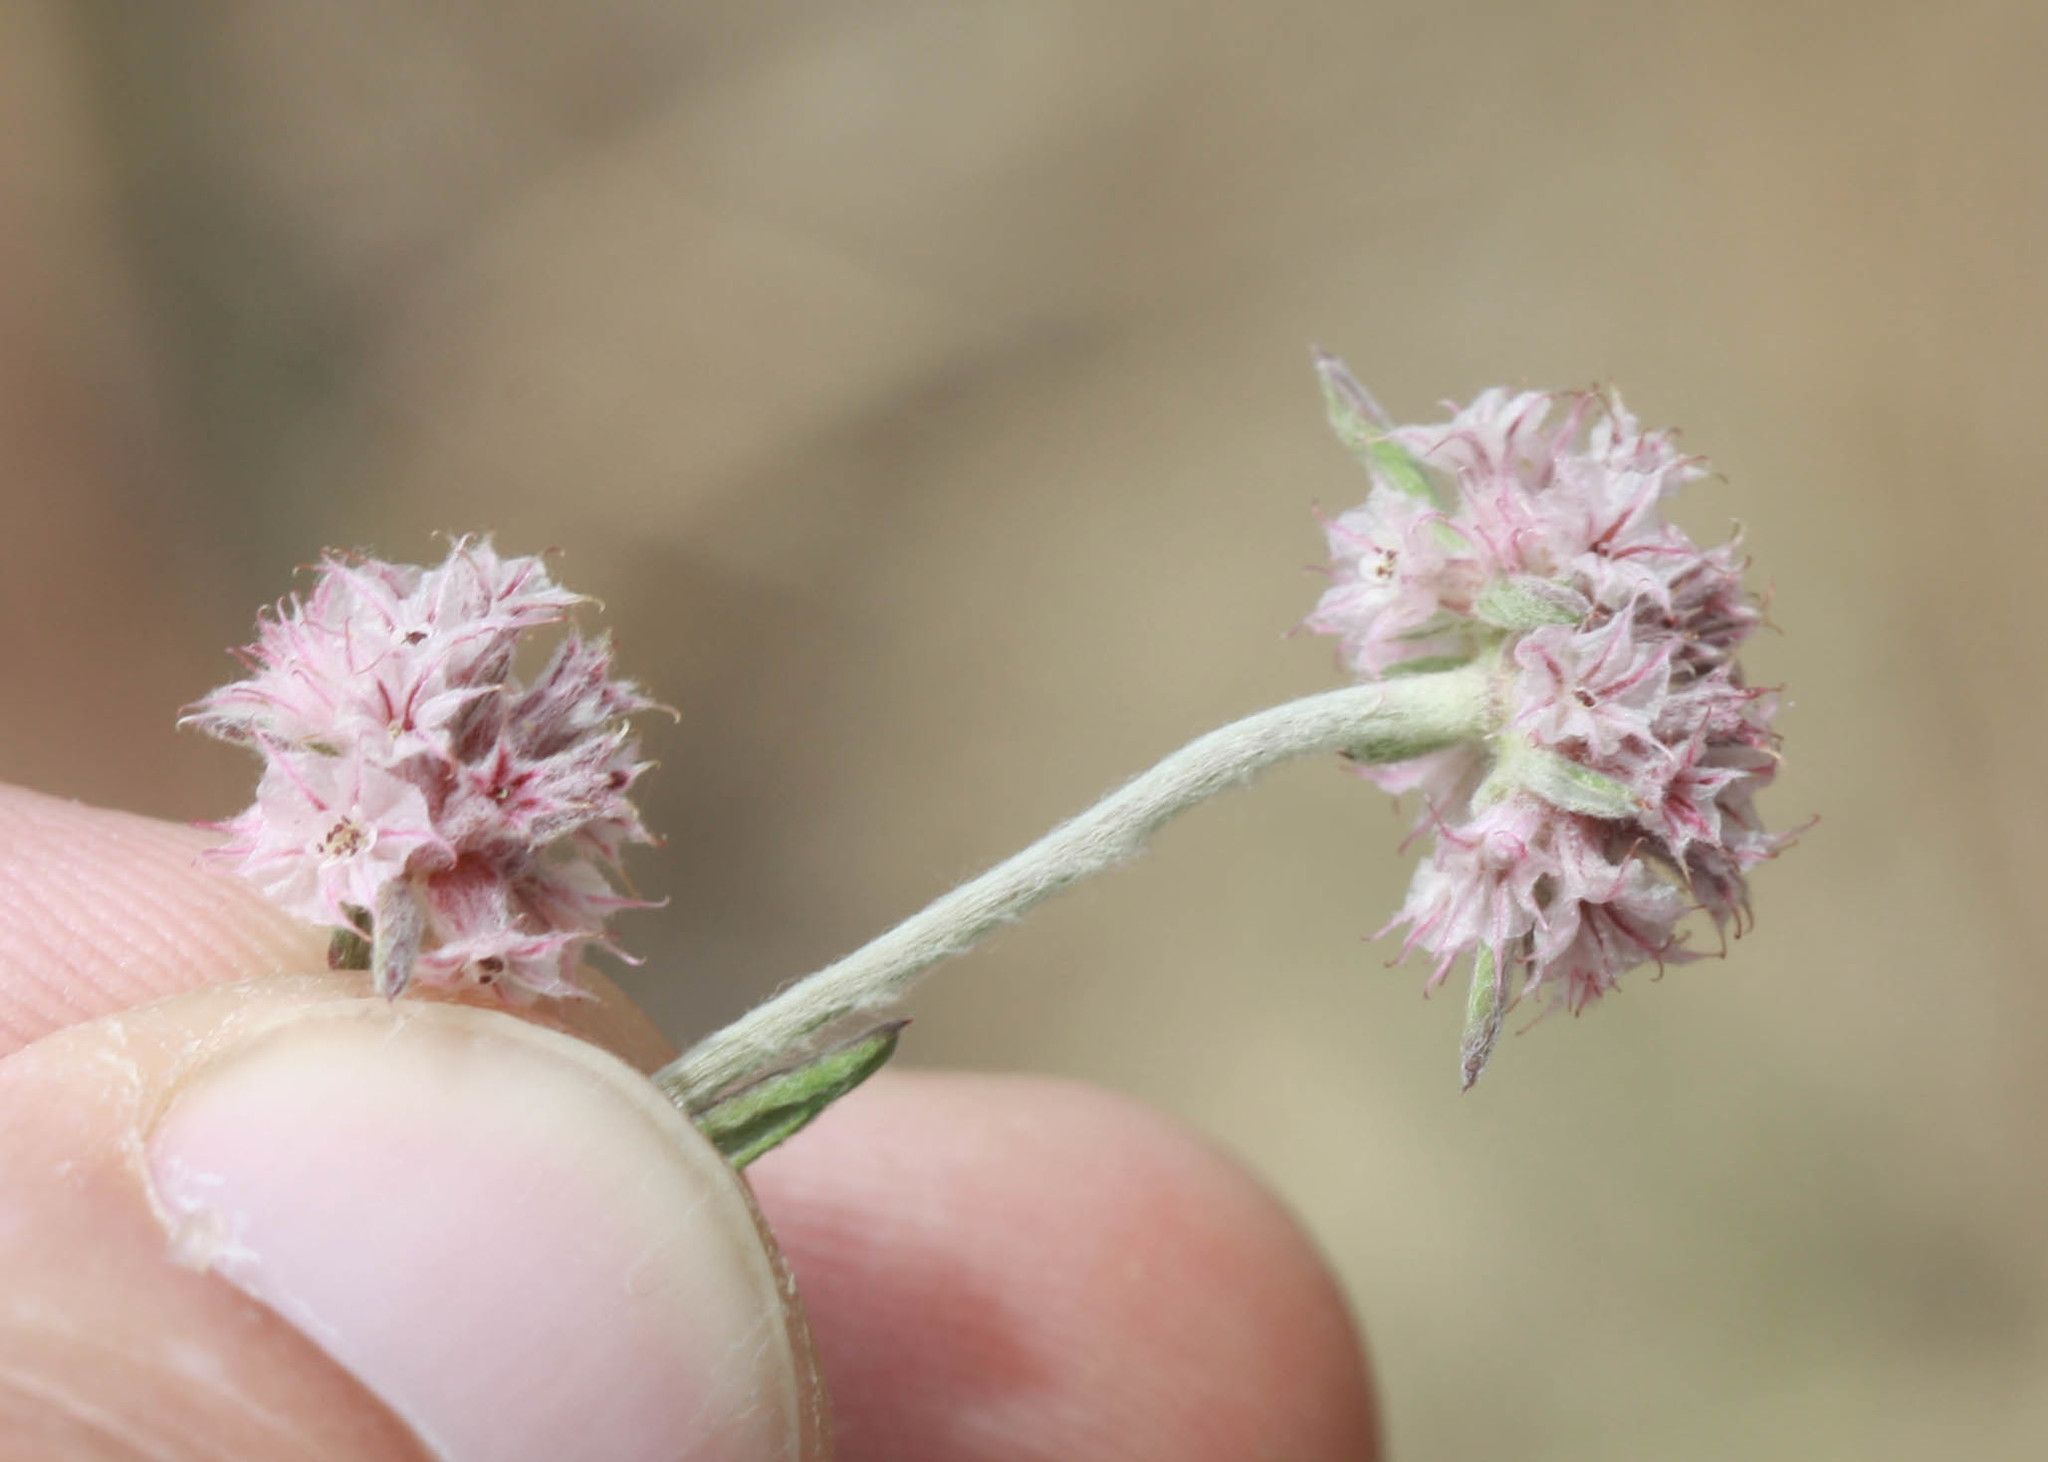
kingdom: Plantae
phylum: Tracheophyta
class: Magnoliopsida
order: Caryophyllales
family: Polygonaceae
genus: Chorizanthe
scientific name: Chorizanthe membranacea
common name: Pink spineflower
